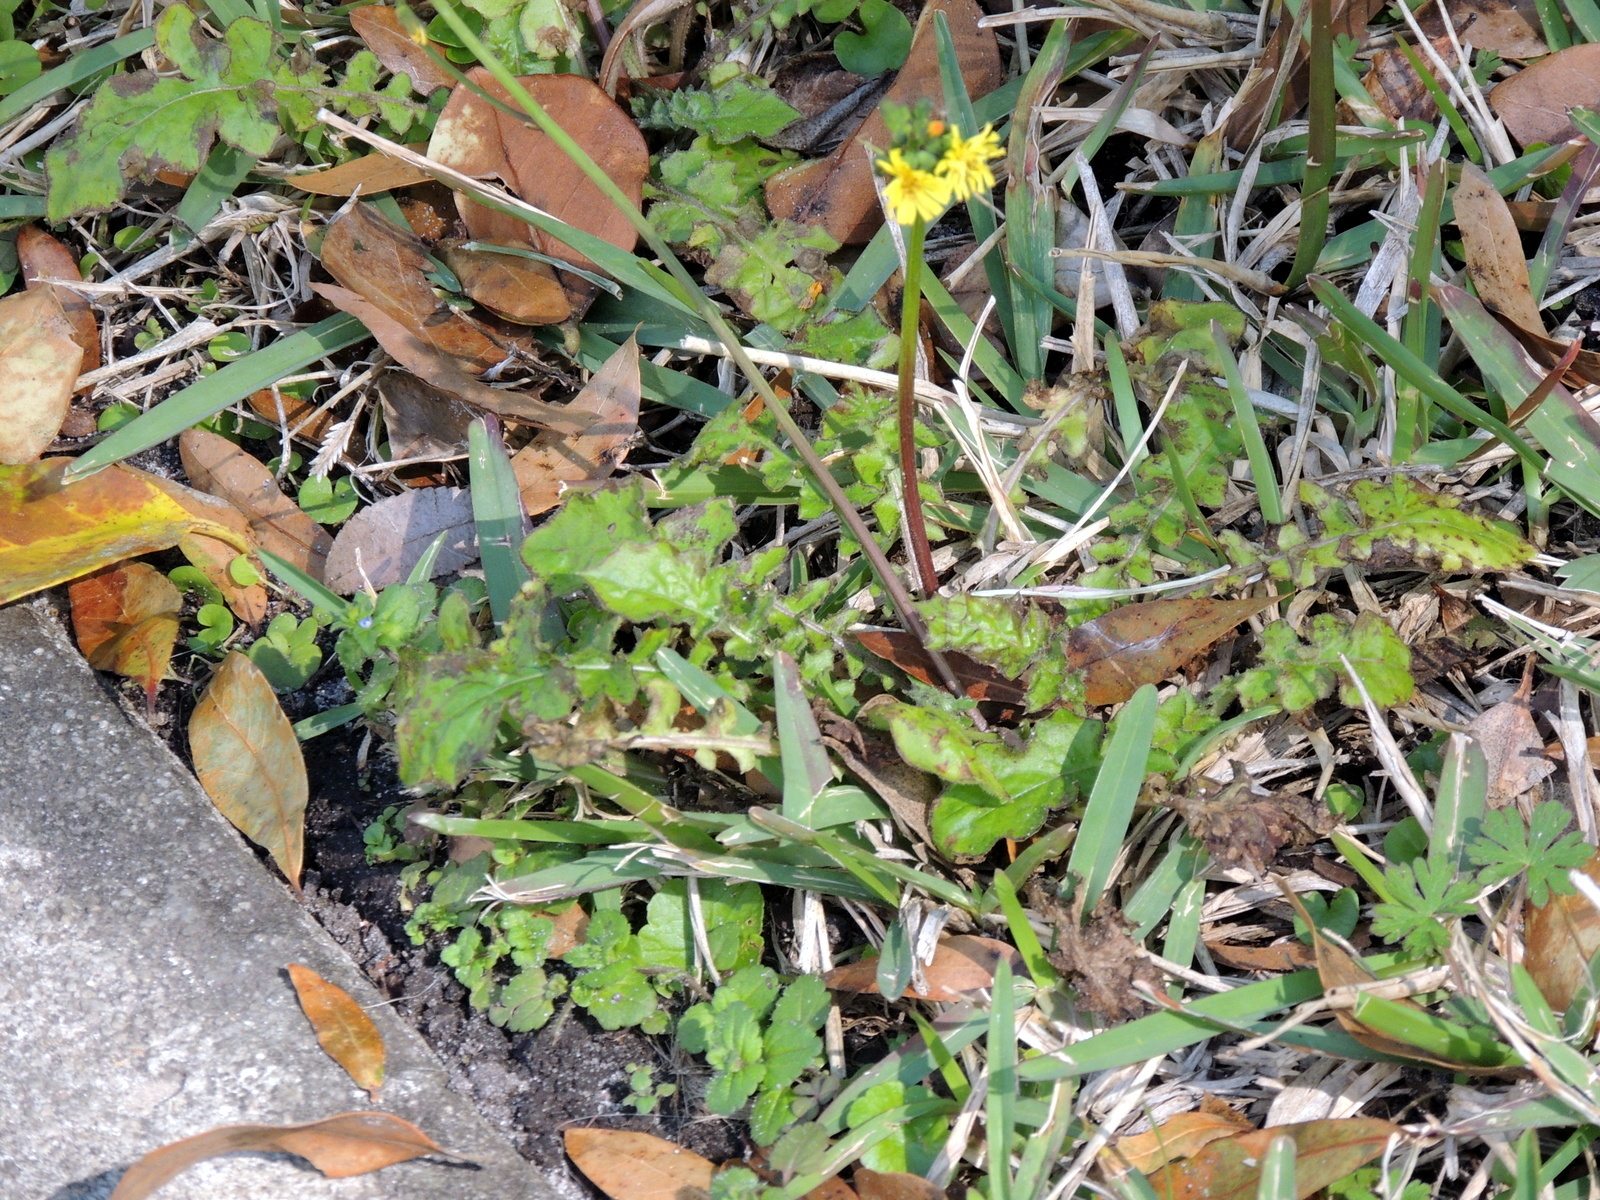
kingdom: Plantae
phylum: Tracheophyta
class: Magnoliopsida
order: Asterales
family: Asteraceae
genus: Youngia
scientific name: Youngia japonica
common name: Oriental false hawksbeard
